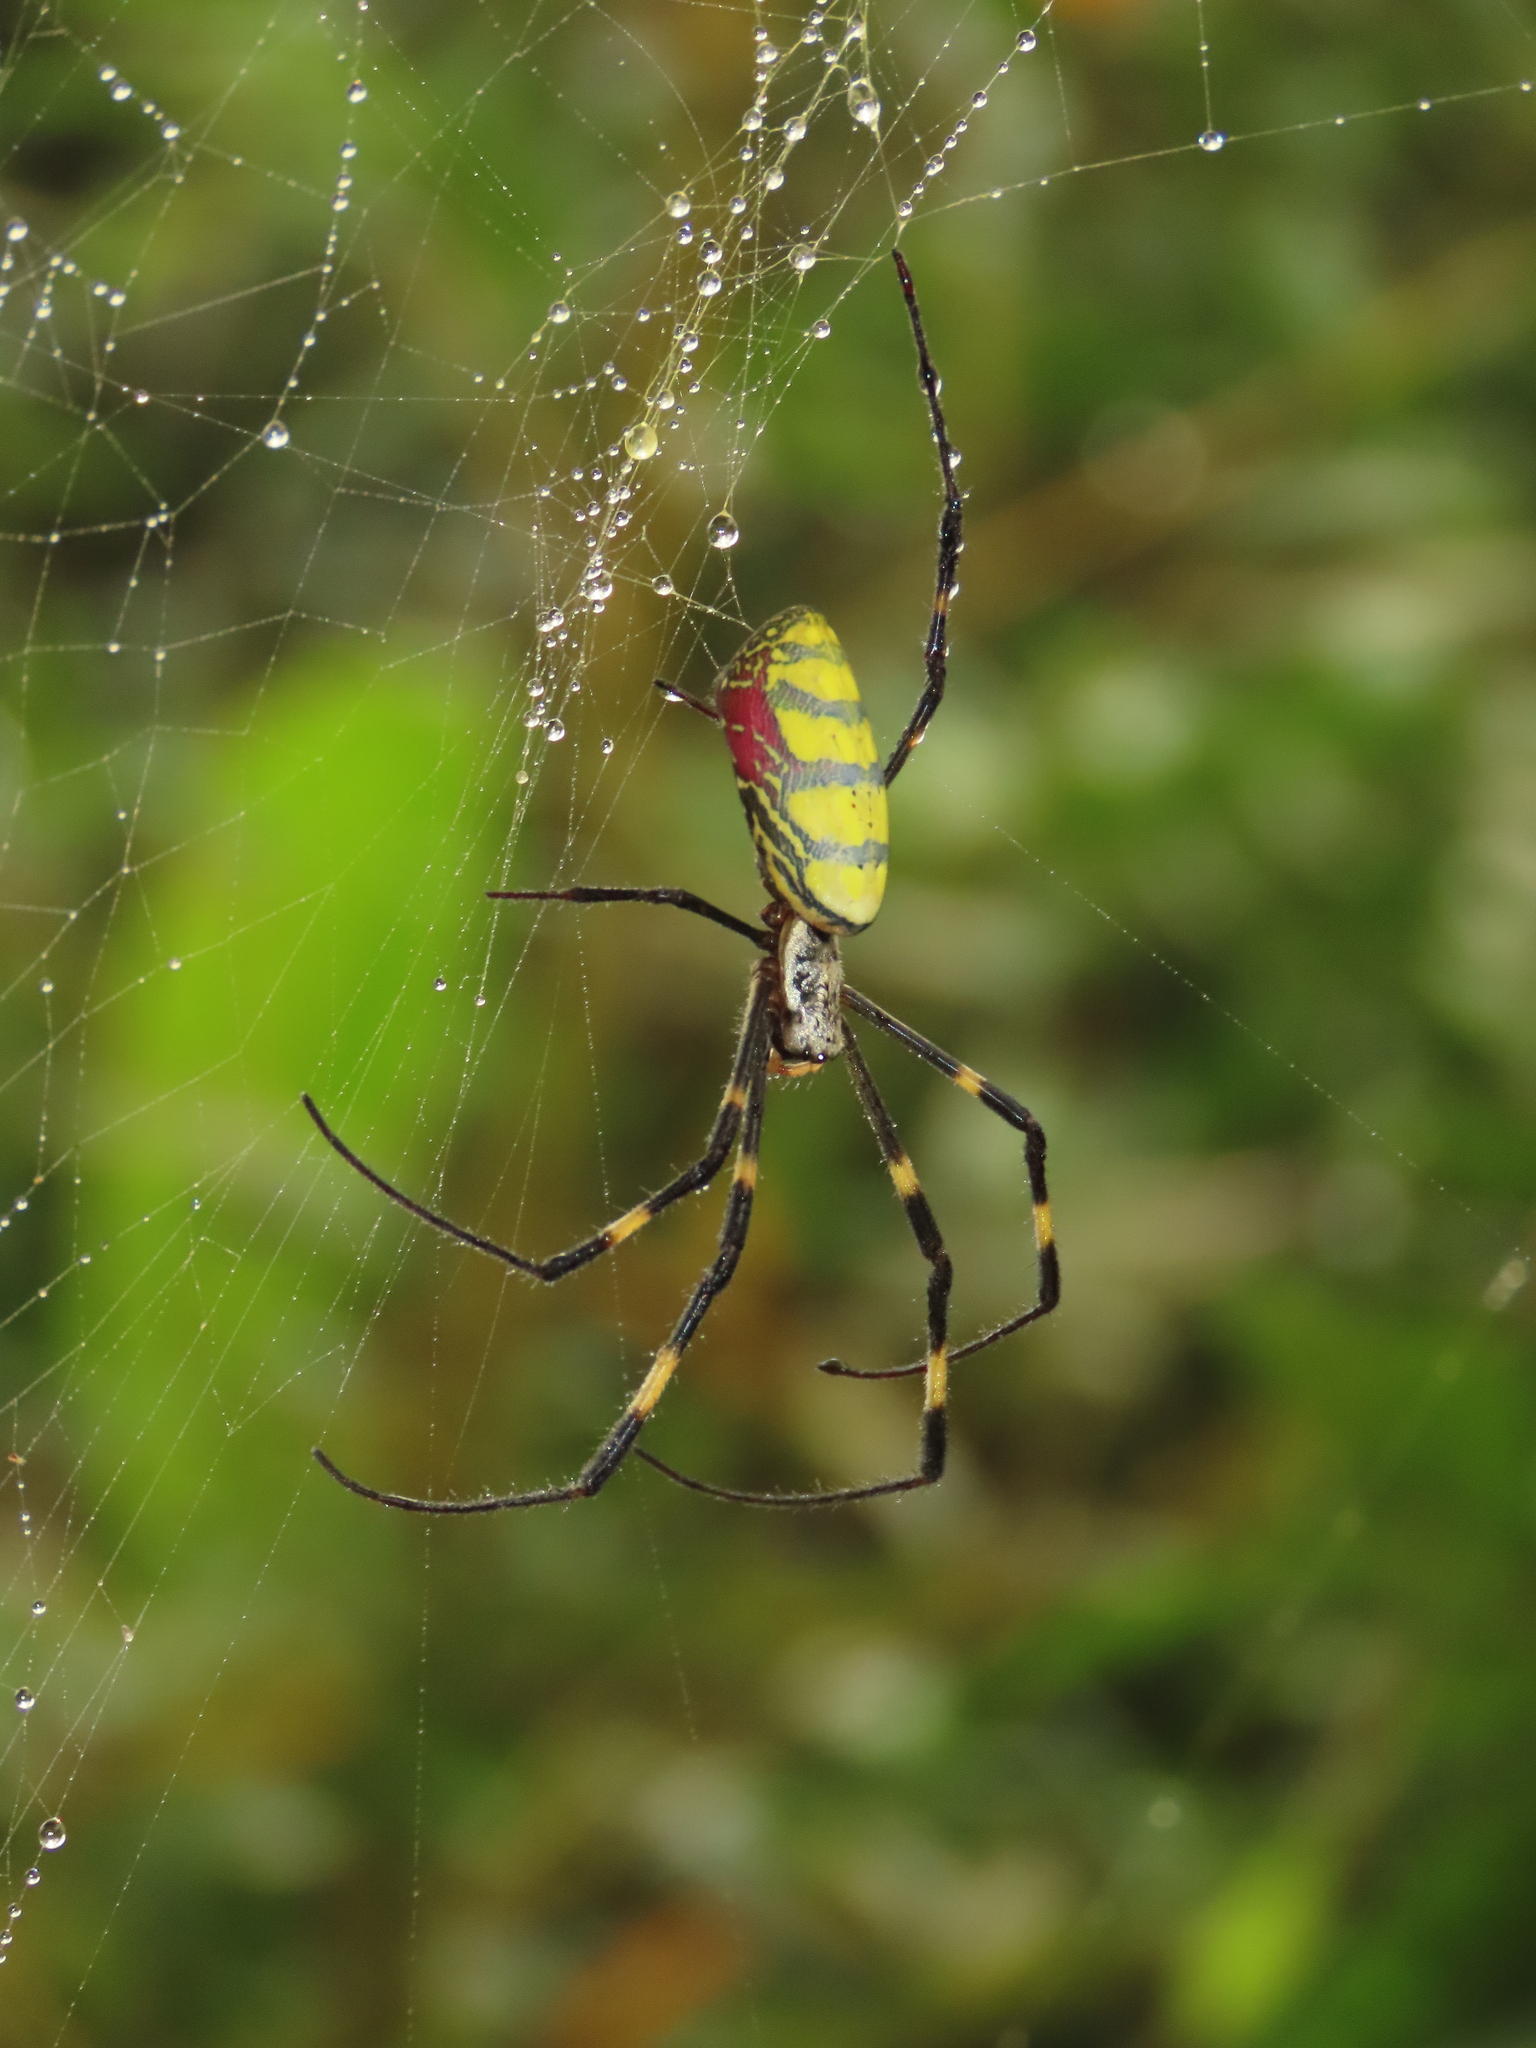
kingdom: Animalia
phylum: Arthropoda
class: Arachnida
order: Araneae
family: Araneidae
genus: Trichonephila
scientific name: Trichonephila clavata
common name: Jorō spider
